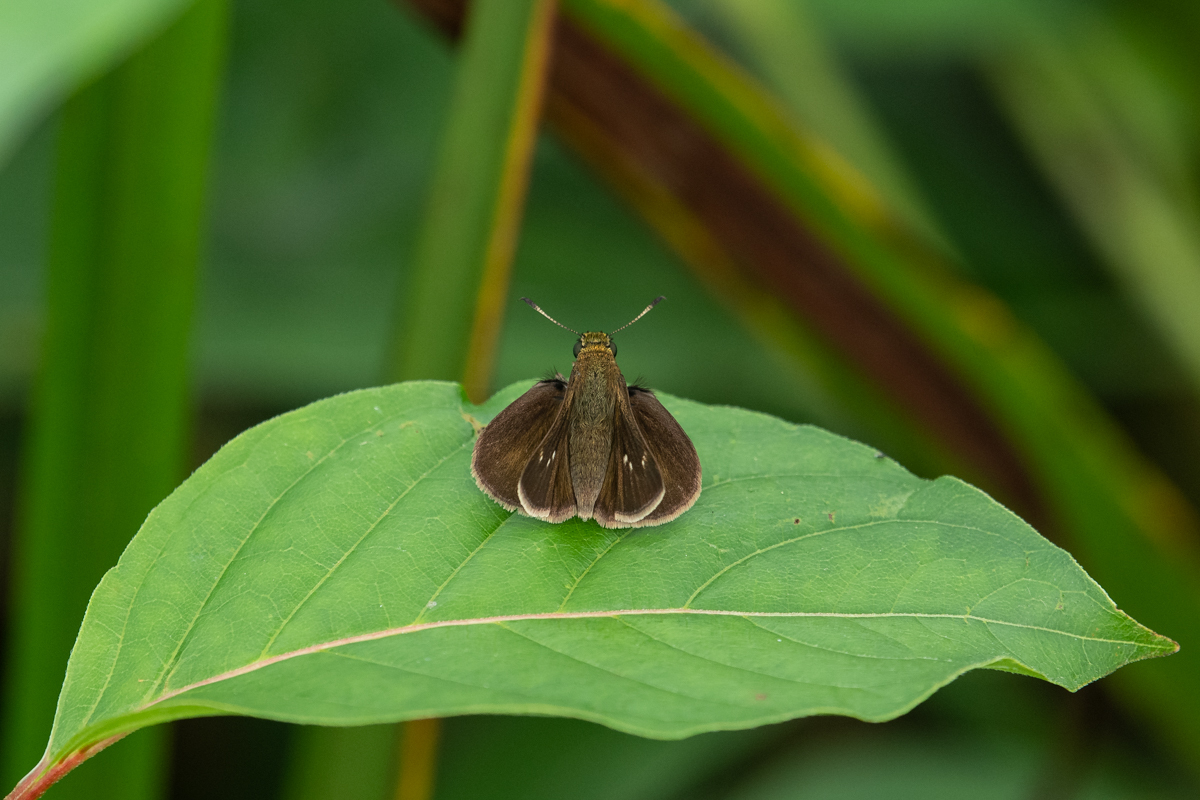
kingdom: Animalia
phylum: Arthropoda
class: Insecta
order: Lepidoptera
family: Hesperiidae
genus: Euphyes
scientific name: Euphyes vestris
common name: Dun skipper
